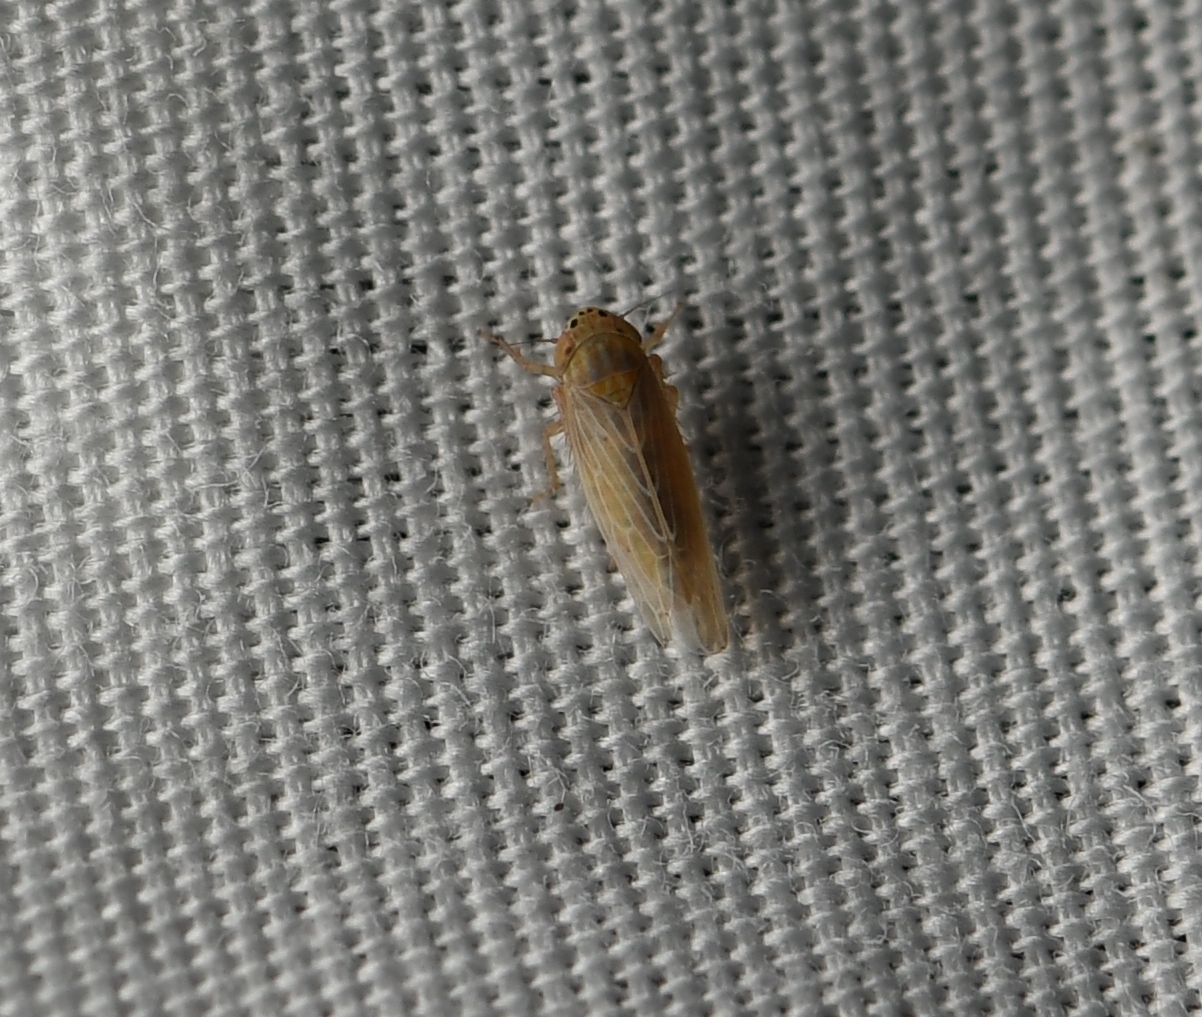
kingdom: Animalia
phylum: Arthropoda
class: Insecta
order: Hemiptera
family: Cicadellidae
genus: Graminella
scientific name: Graminella sonora
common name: Lesser lawn leafhopper
